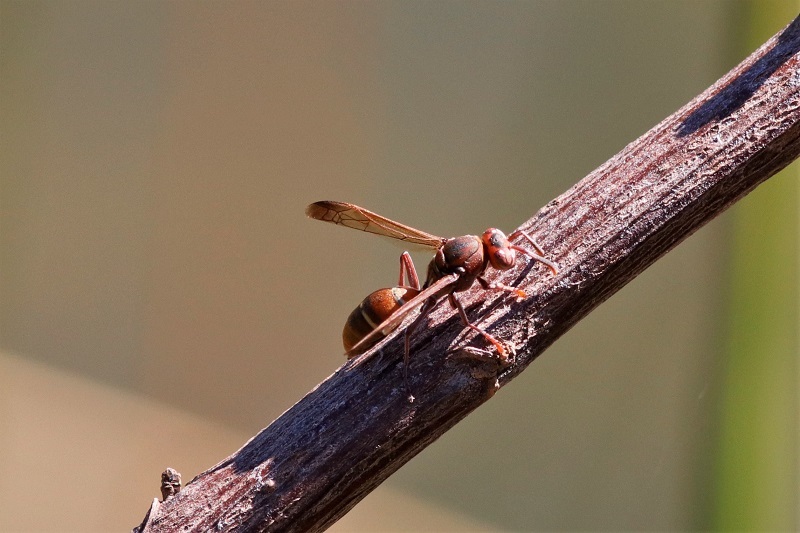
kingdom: Animalia
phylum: Arthropoda
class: Insecta
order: Hymenoptera
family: Eumenidae
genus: Polistes
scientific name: Polistes marginalis
